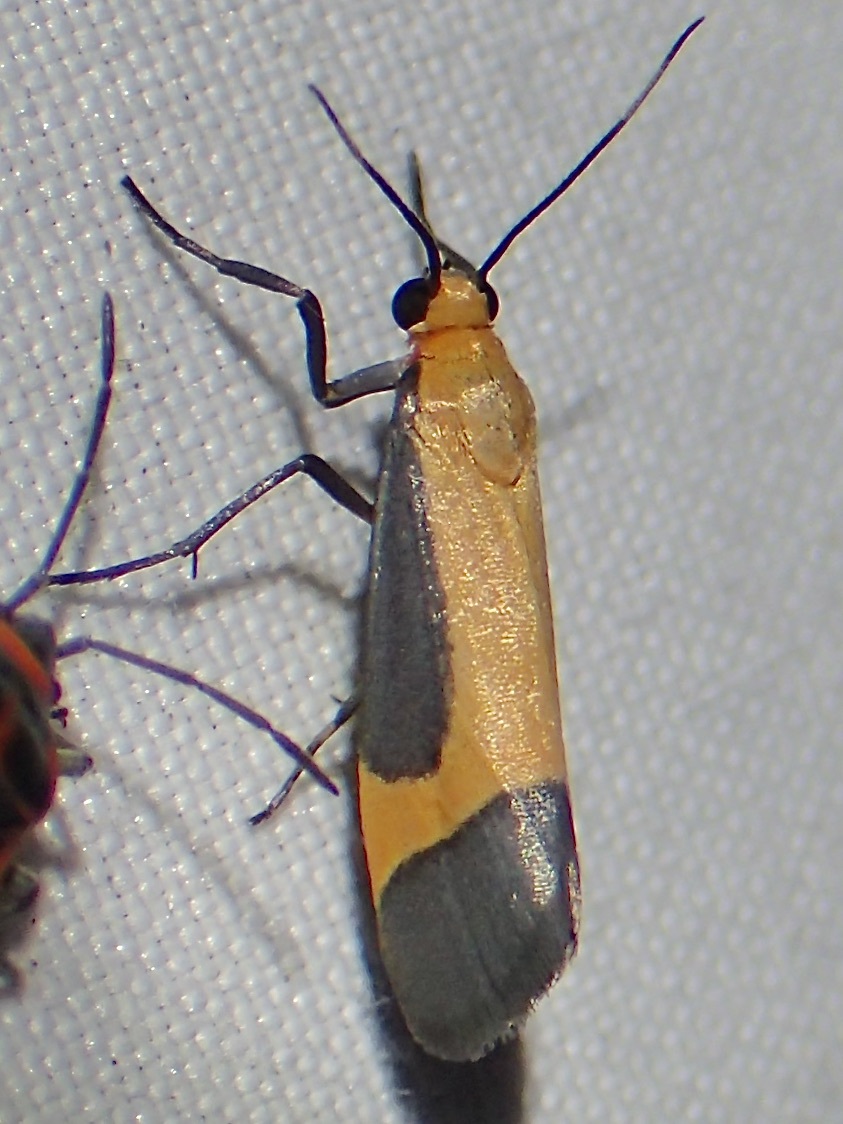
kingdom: Animalia
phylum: Arthropoda
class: Insecta
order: Lepidoptera
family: Erebidae
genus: Cisthene
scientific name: Cisthene angelus
